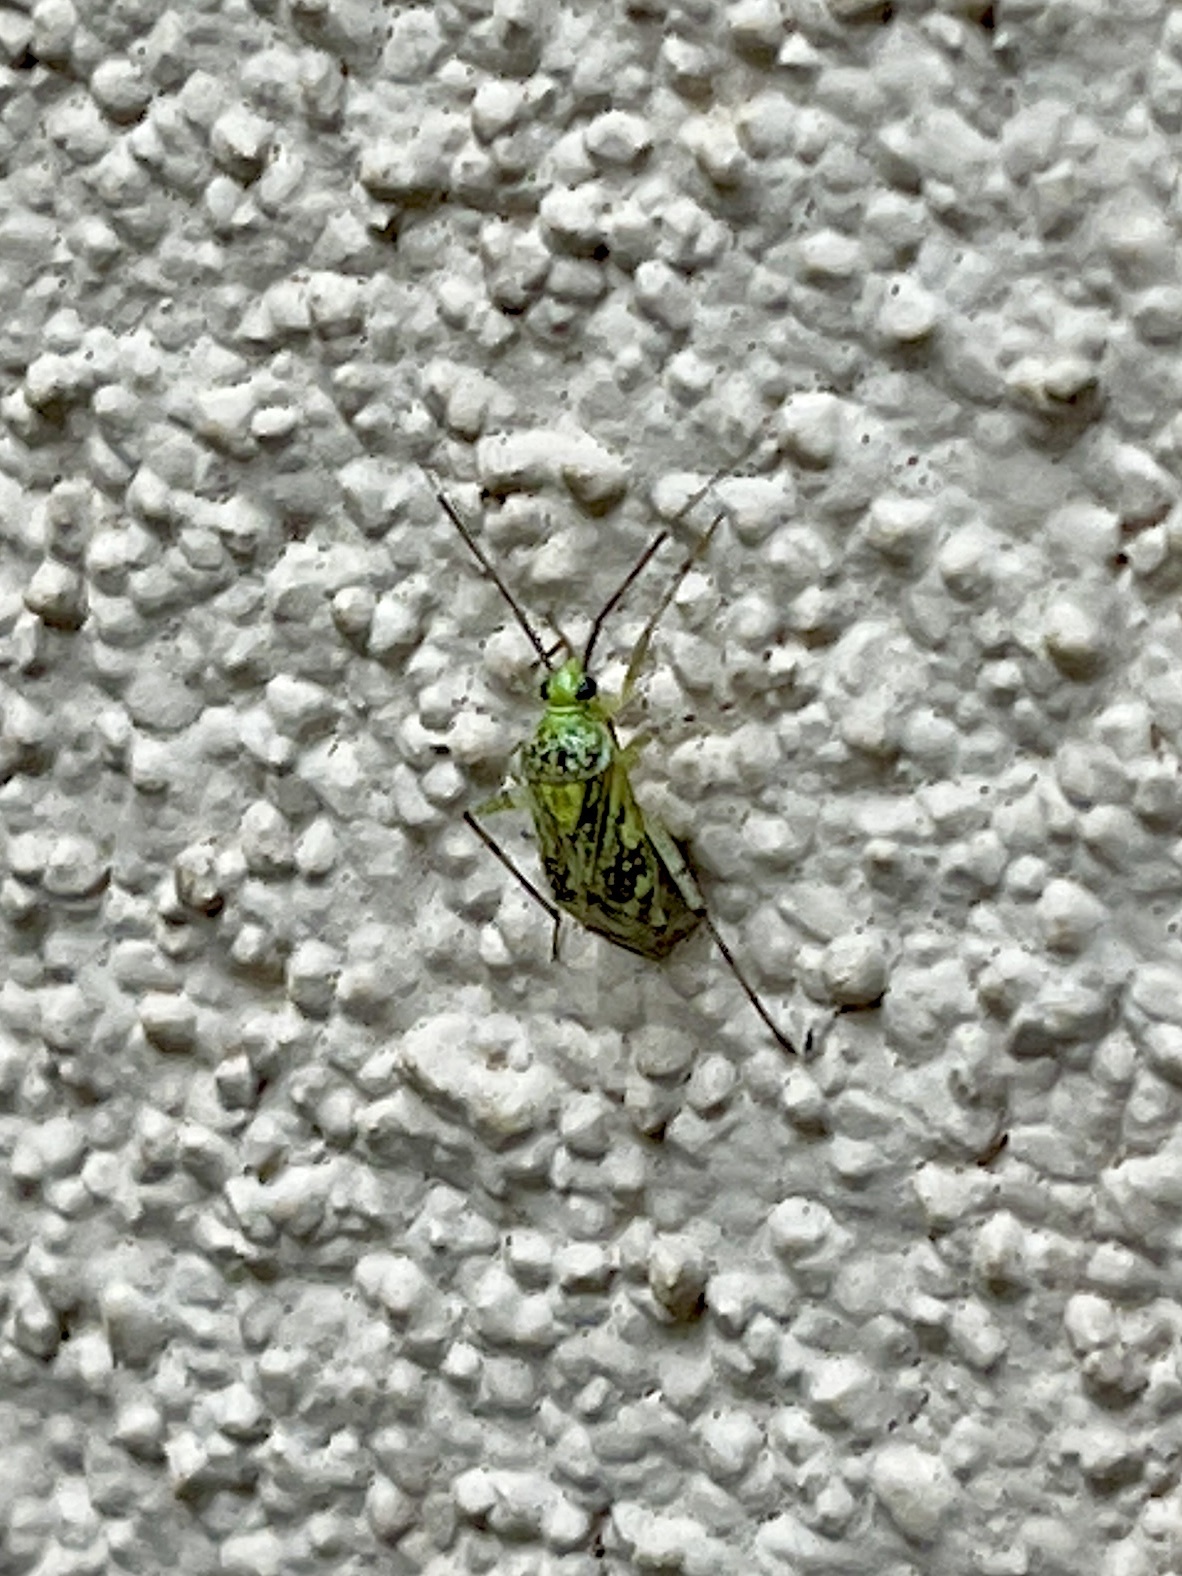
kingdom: Animalia
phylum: Arthropoda
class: Insecta
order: Hemiptera
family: Miridae
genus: Taedia
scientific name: Taedia marmorata
